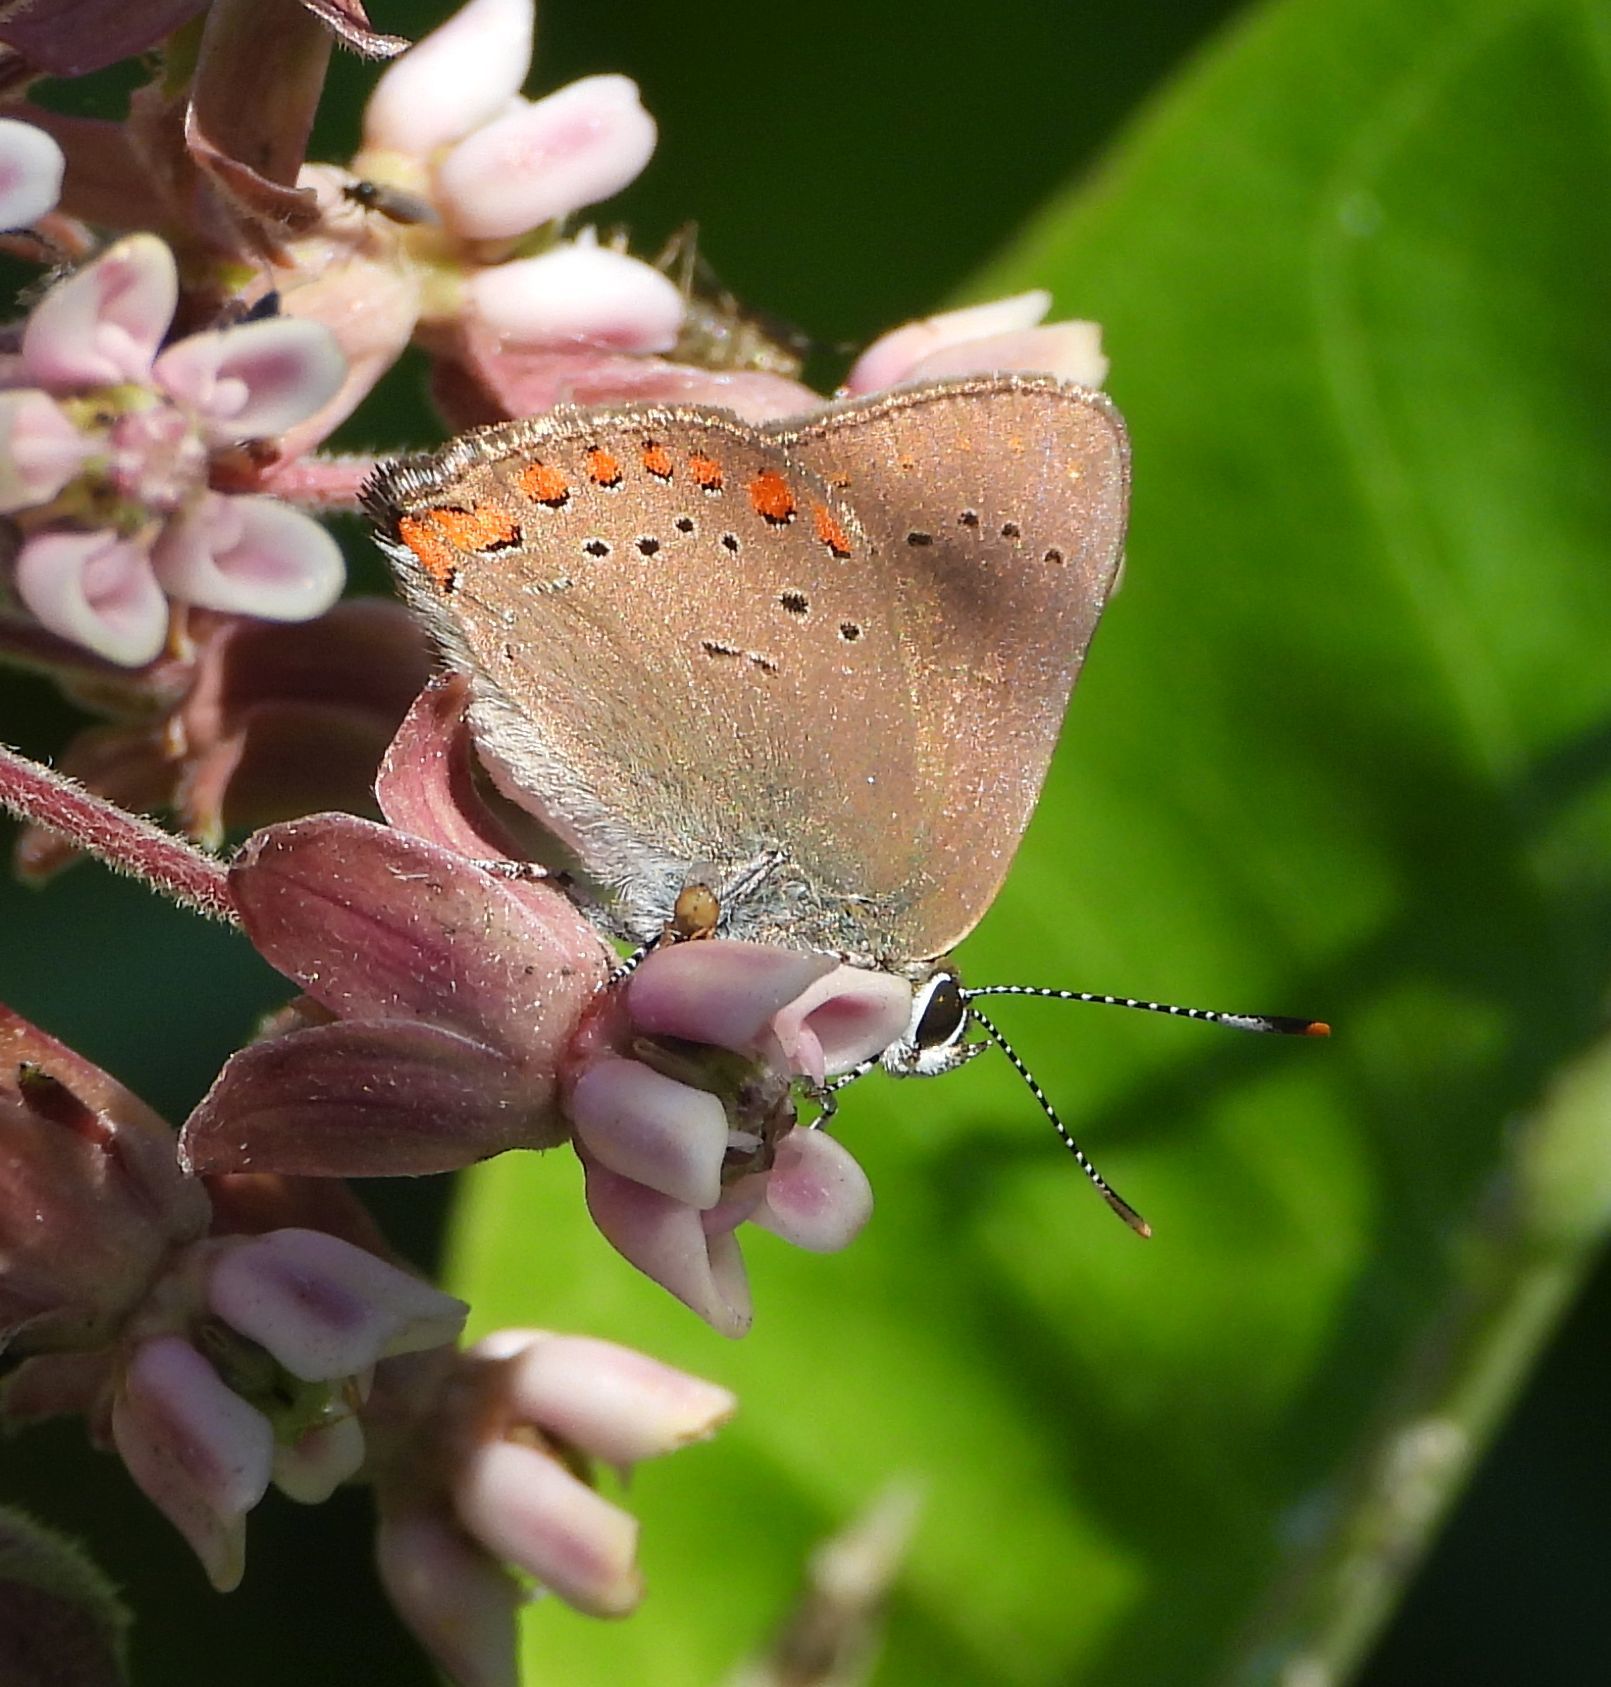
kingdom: Animalia
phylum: Arthropoda
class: Insecta
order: Lepidoptera
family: Lycaenidae
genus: Harkenclenus
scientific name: Harkenclenus titus
